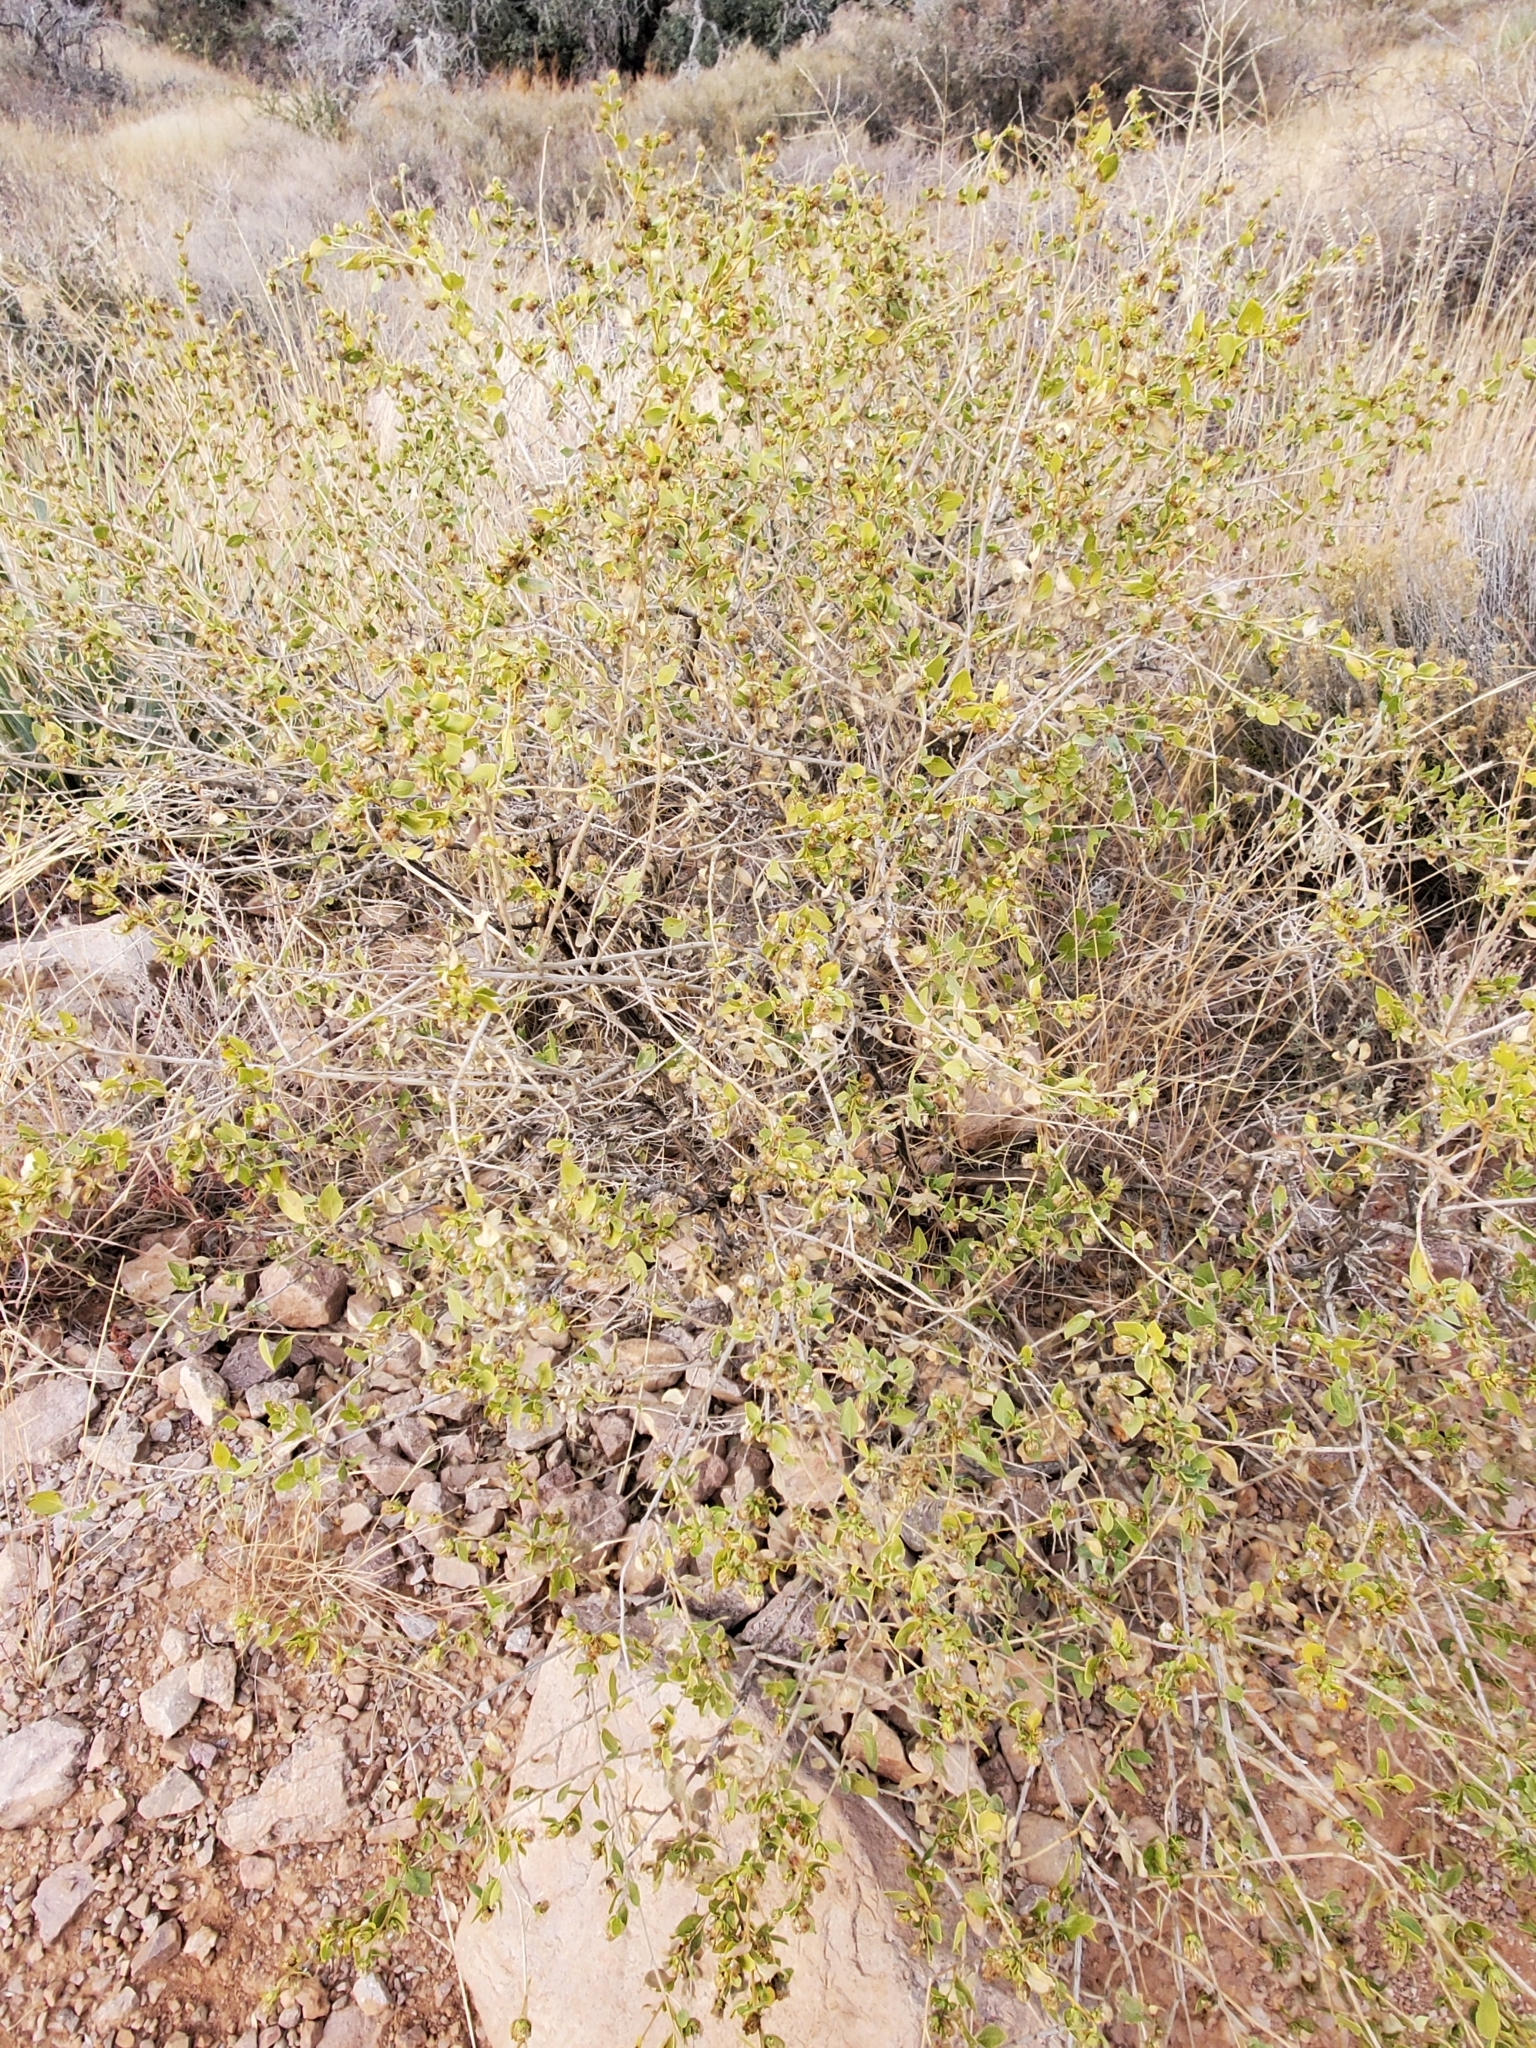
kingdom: Plantae
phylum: Tracheophyta
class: Magnoliopsida
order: Asterales
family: Asteraceae
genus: Flourensia
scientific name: Flourensia cernua
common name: Varnishbush
